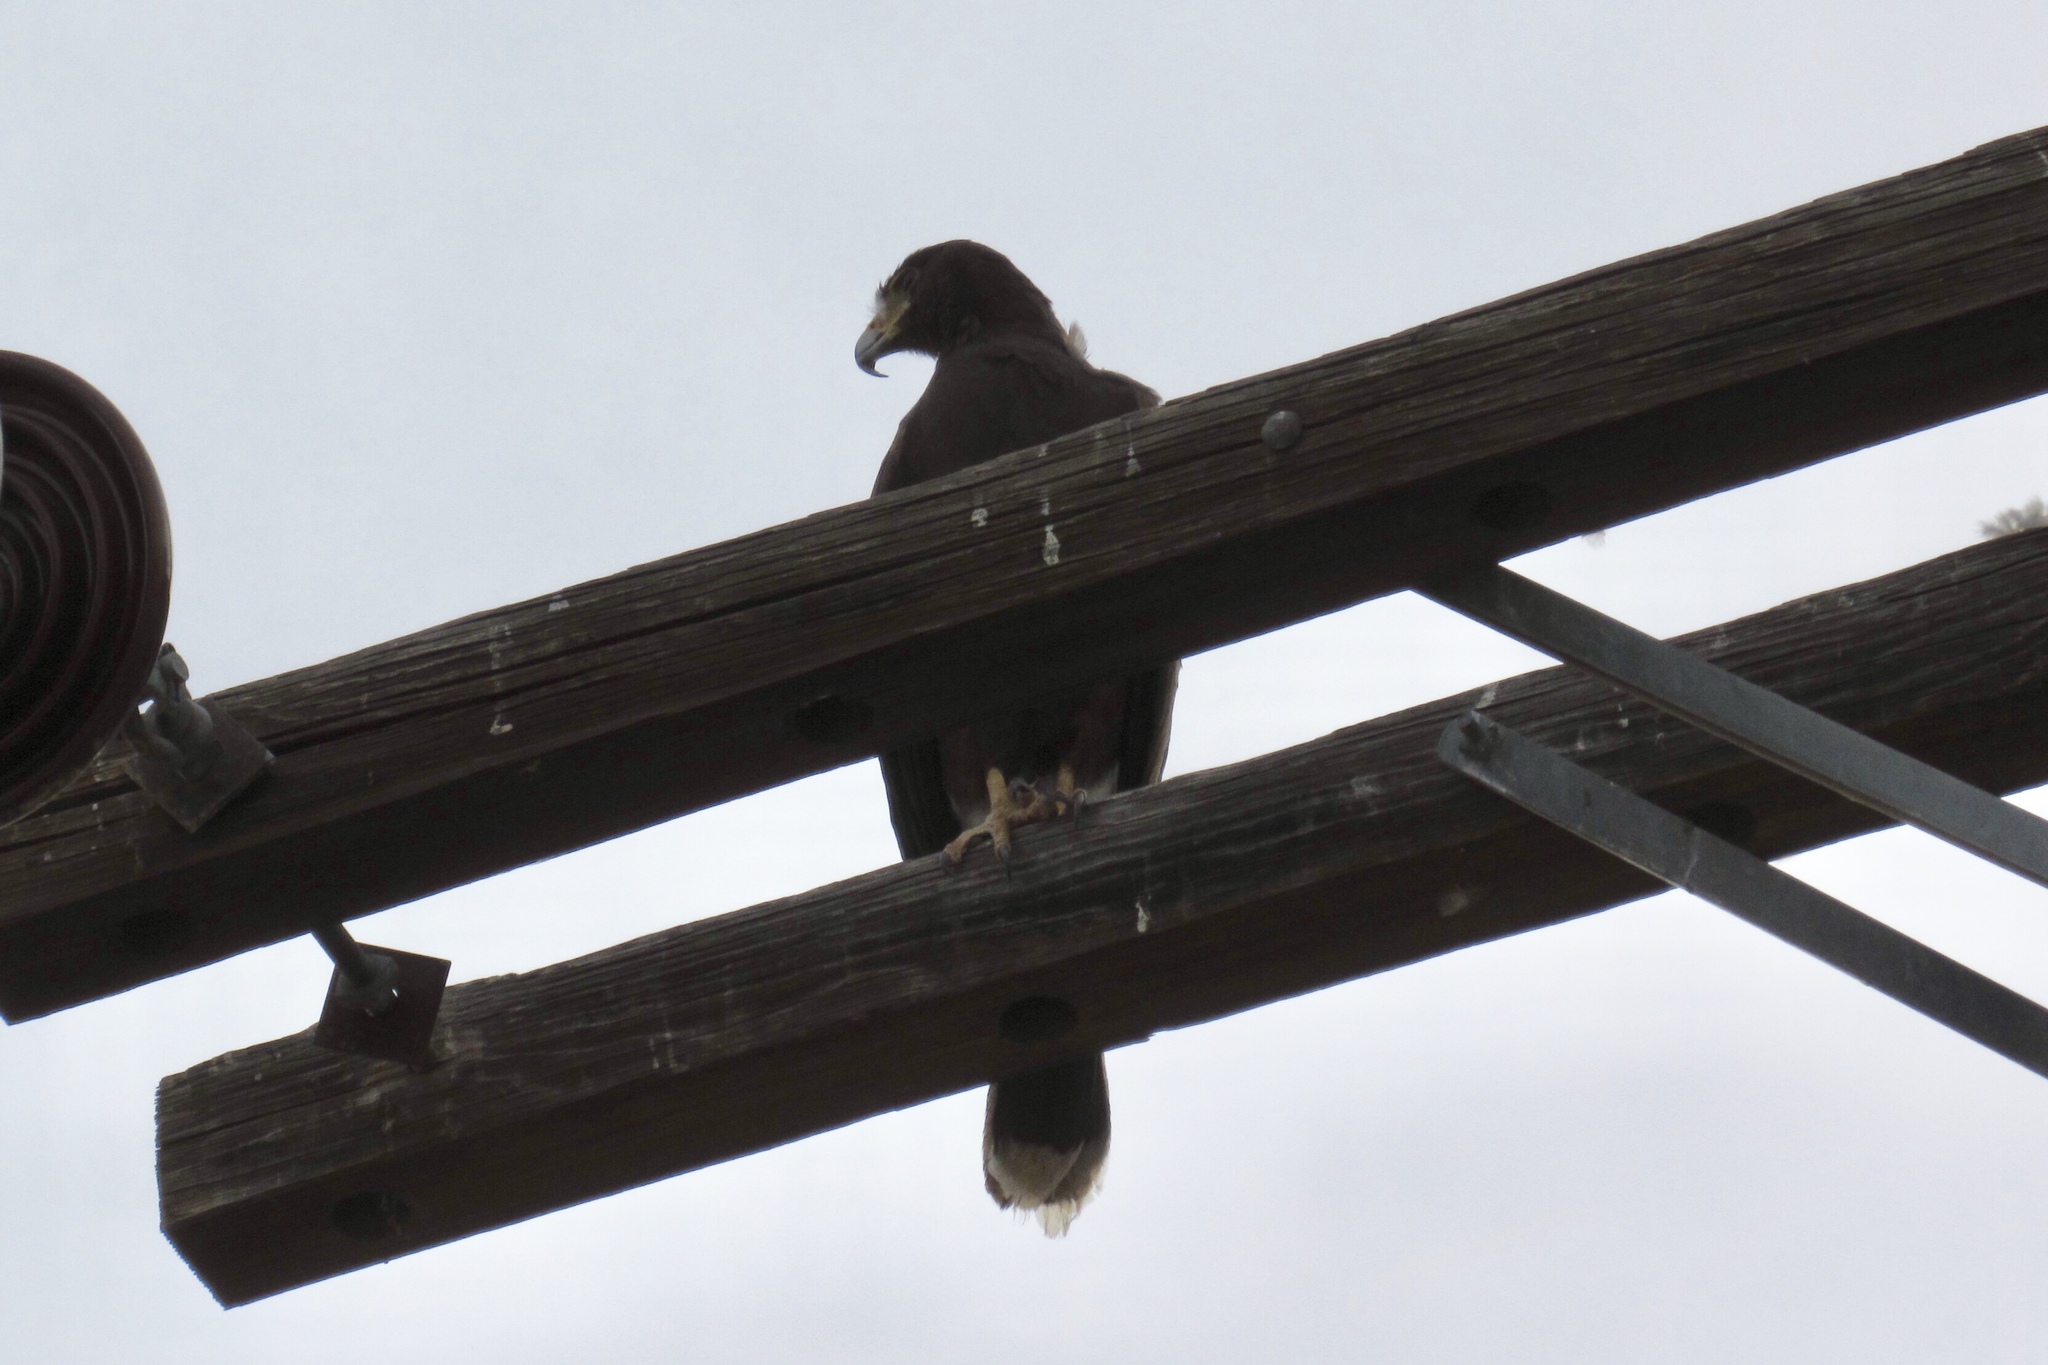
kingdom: Animalia
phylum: Chordata
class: Aves
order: Accipitriformes
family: Accipitridae
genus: Parabuteo
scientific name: Parabuteo unicinctus
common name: Harris's hawk
